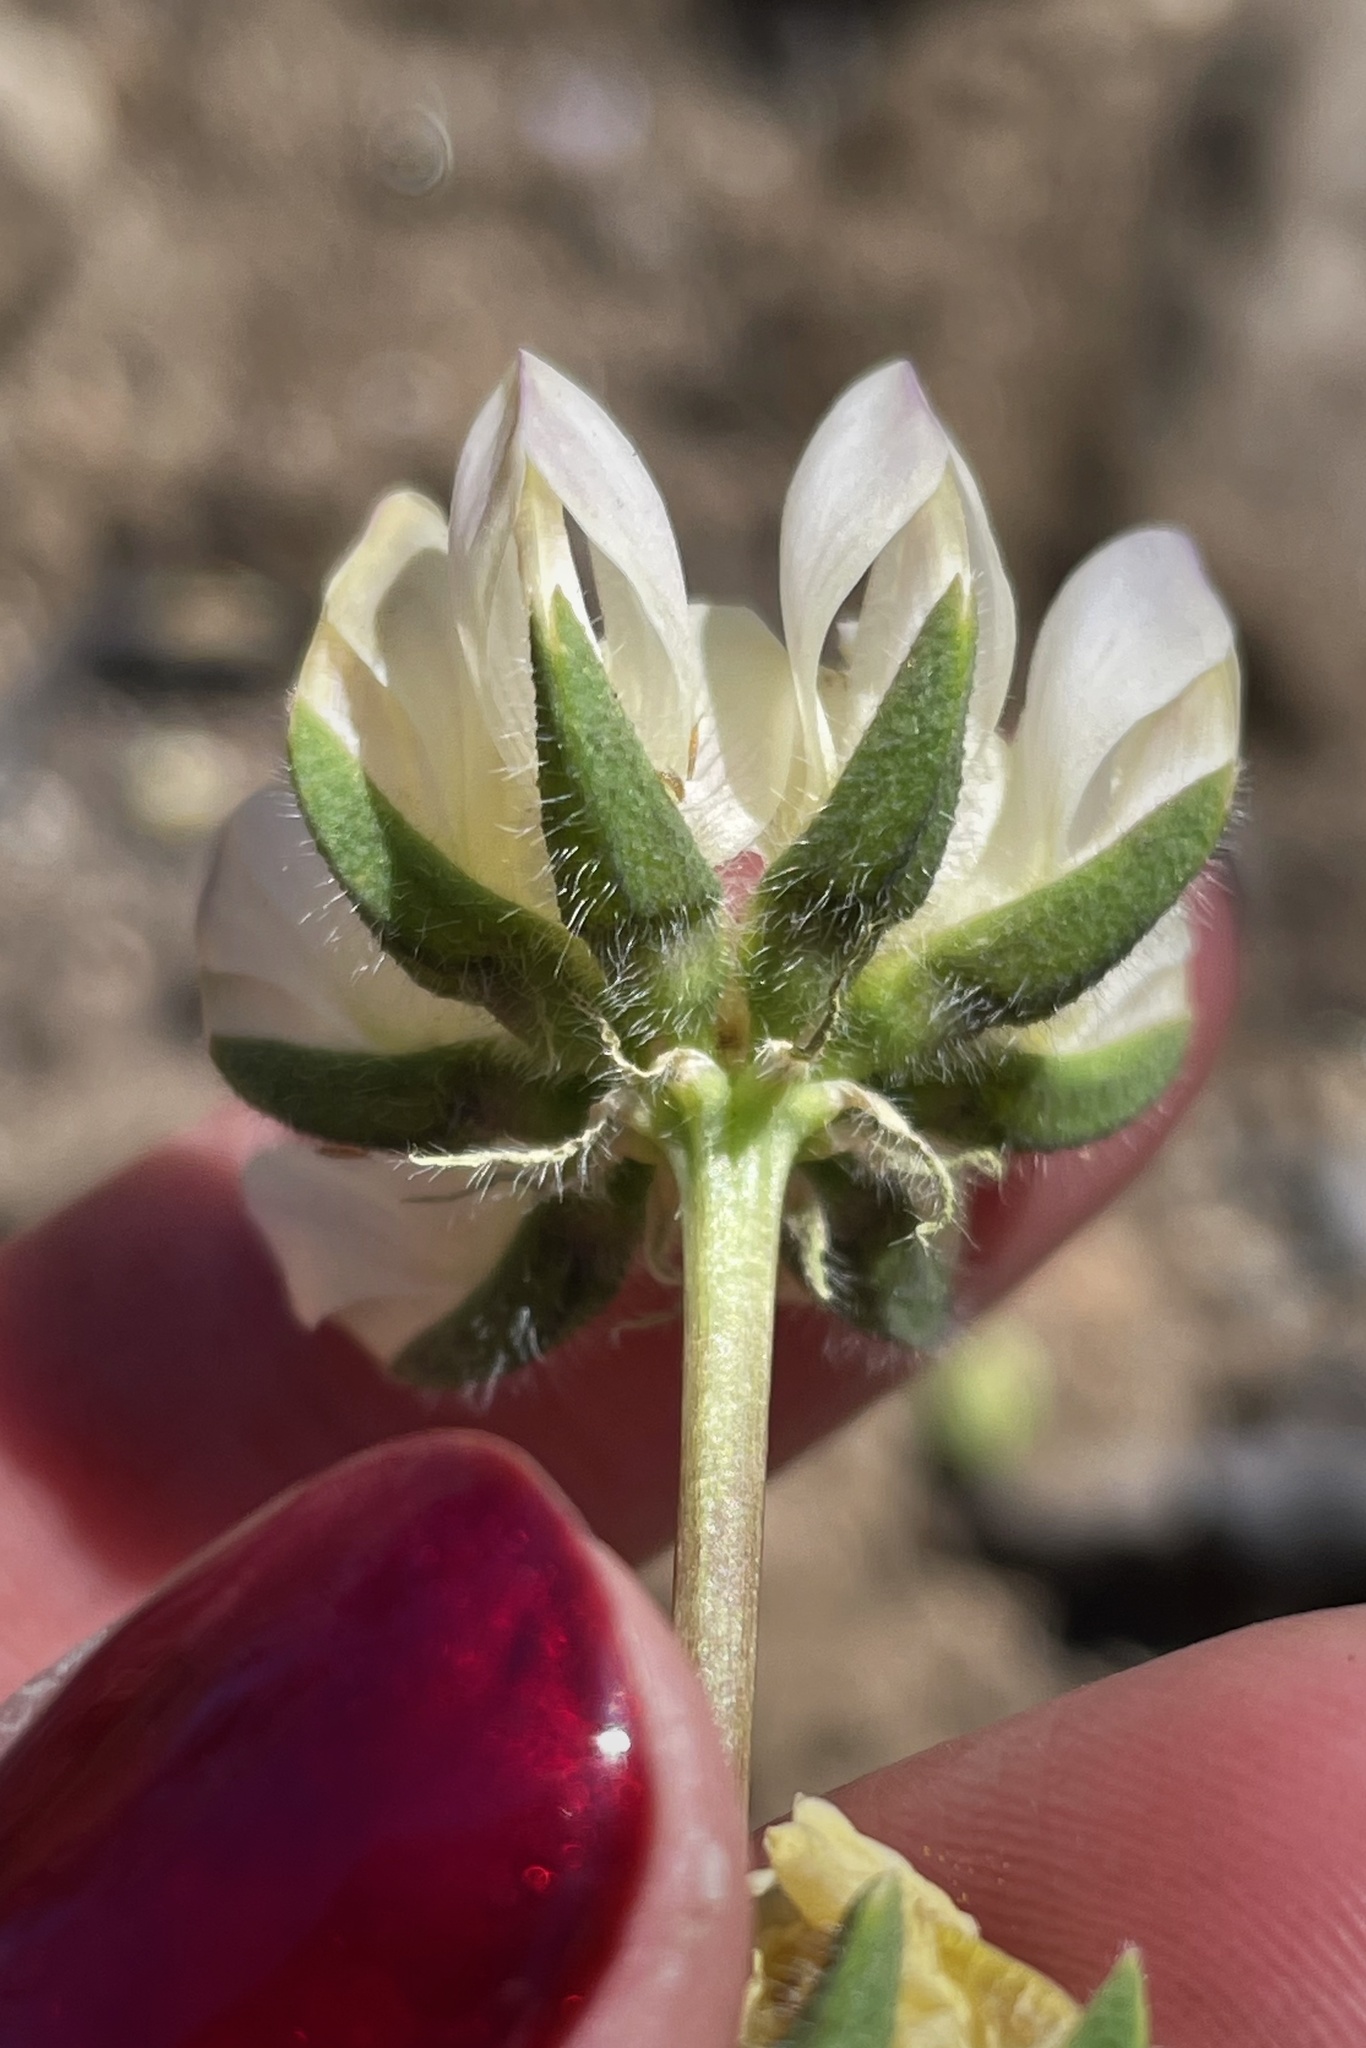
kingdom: Plantae
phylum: Tracheophyta
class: Magnoliopsida
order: Fabales
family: Fabaceae
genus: Lupinus
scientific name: Lupinus microcarpus
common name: Chick lupine
